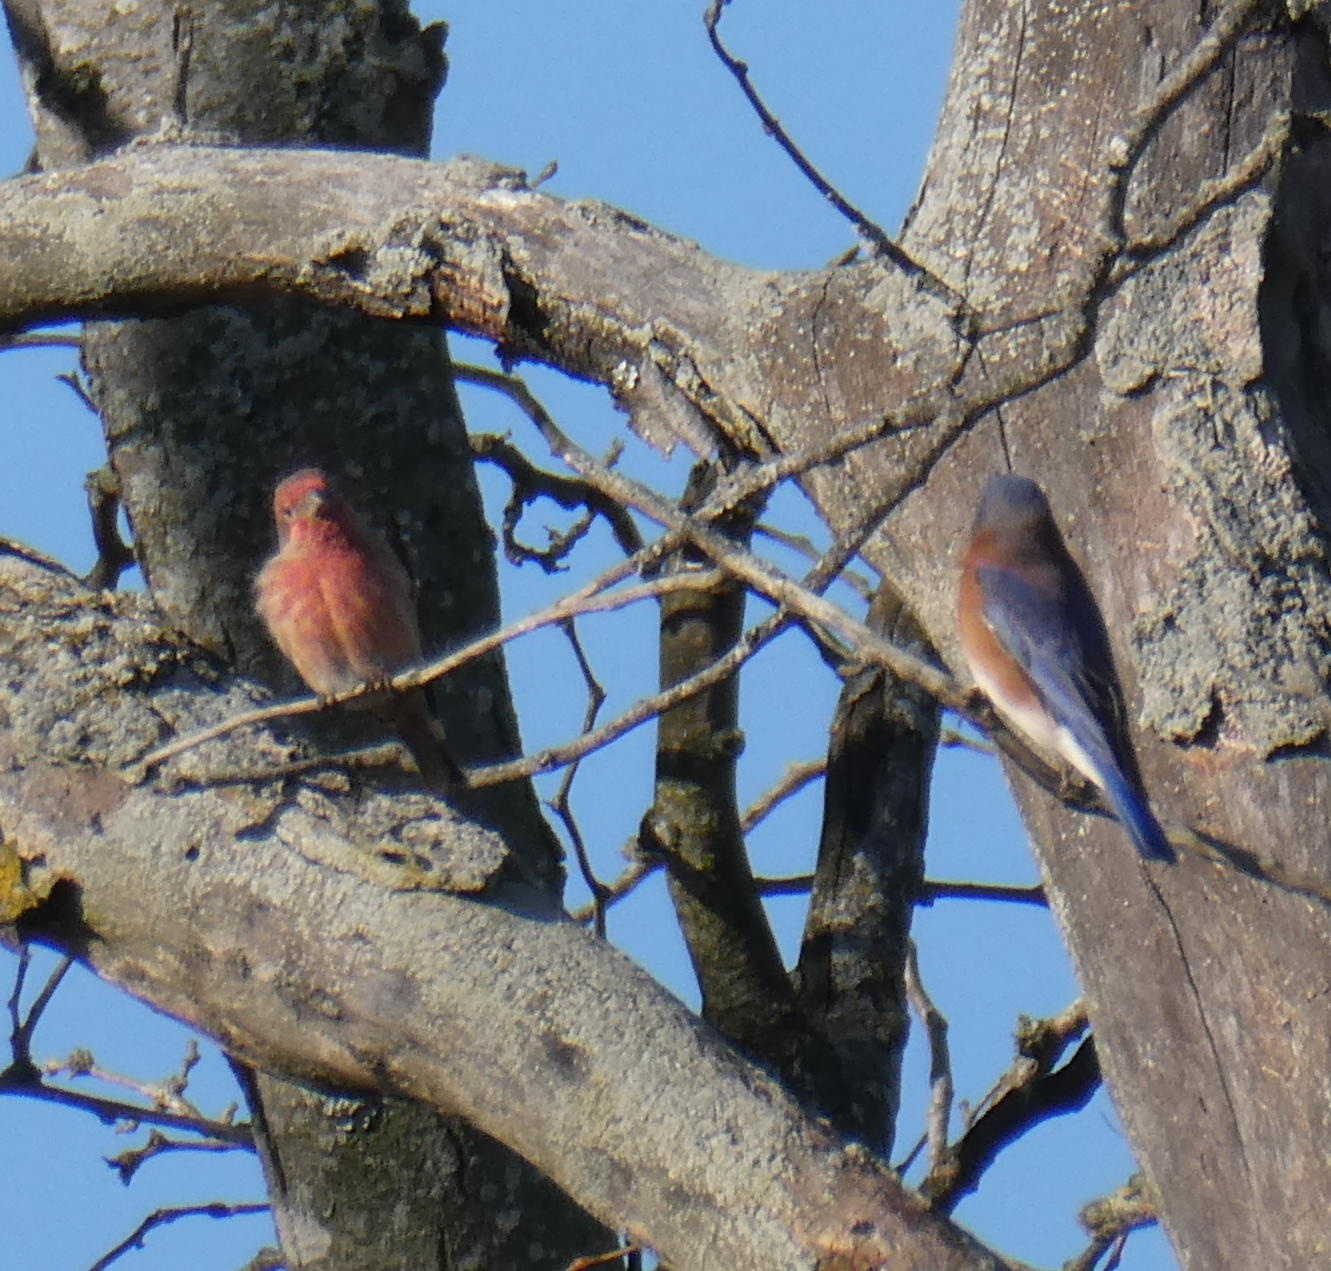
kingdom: Animalia
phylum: Chordata
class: Aves
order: Passeriformes
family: Fringillidae
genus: Haemorhous
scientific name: Haemorhous mexicanus
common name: House finch
